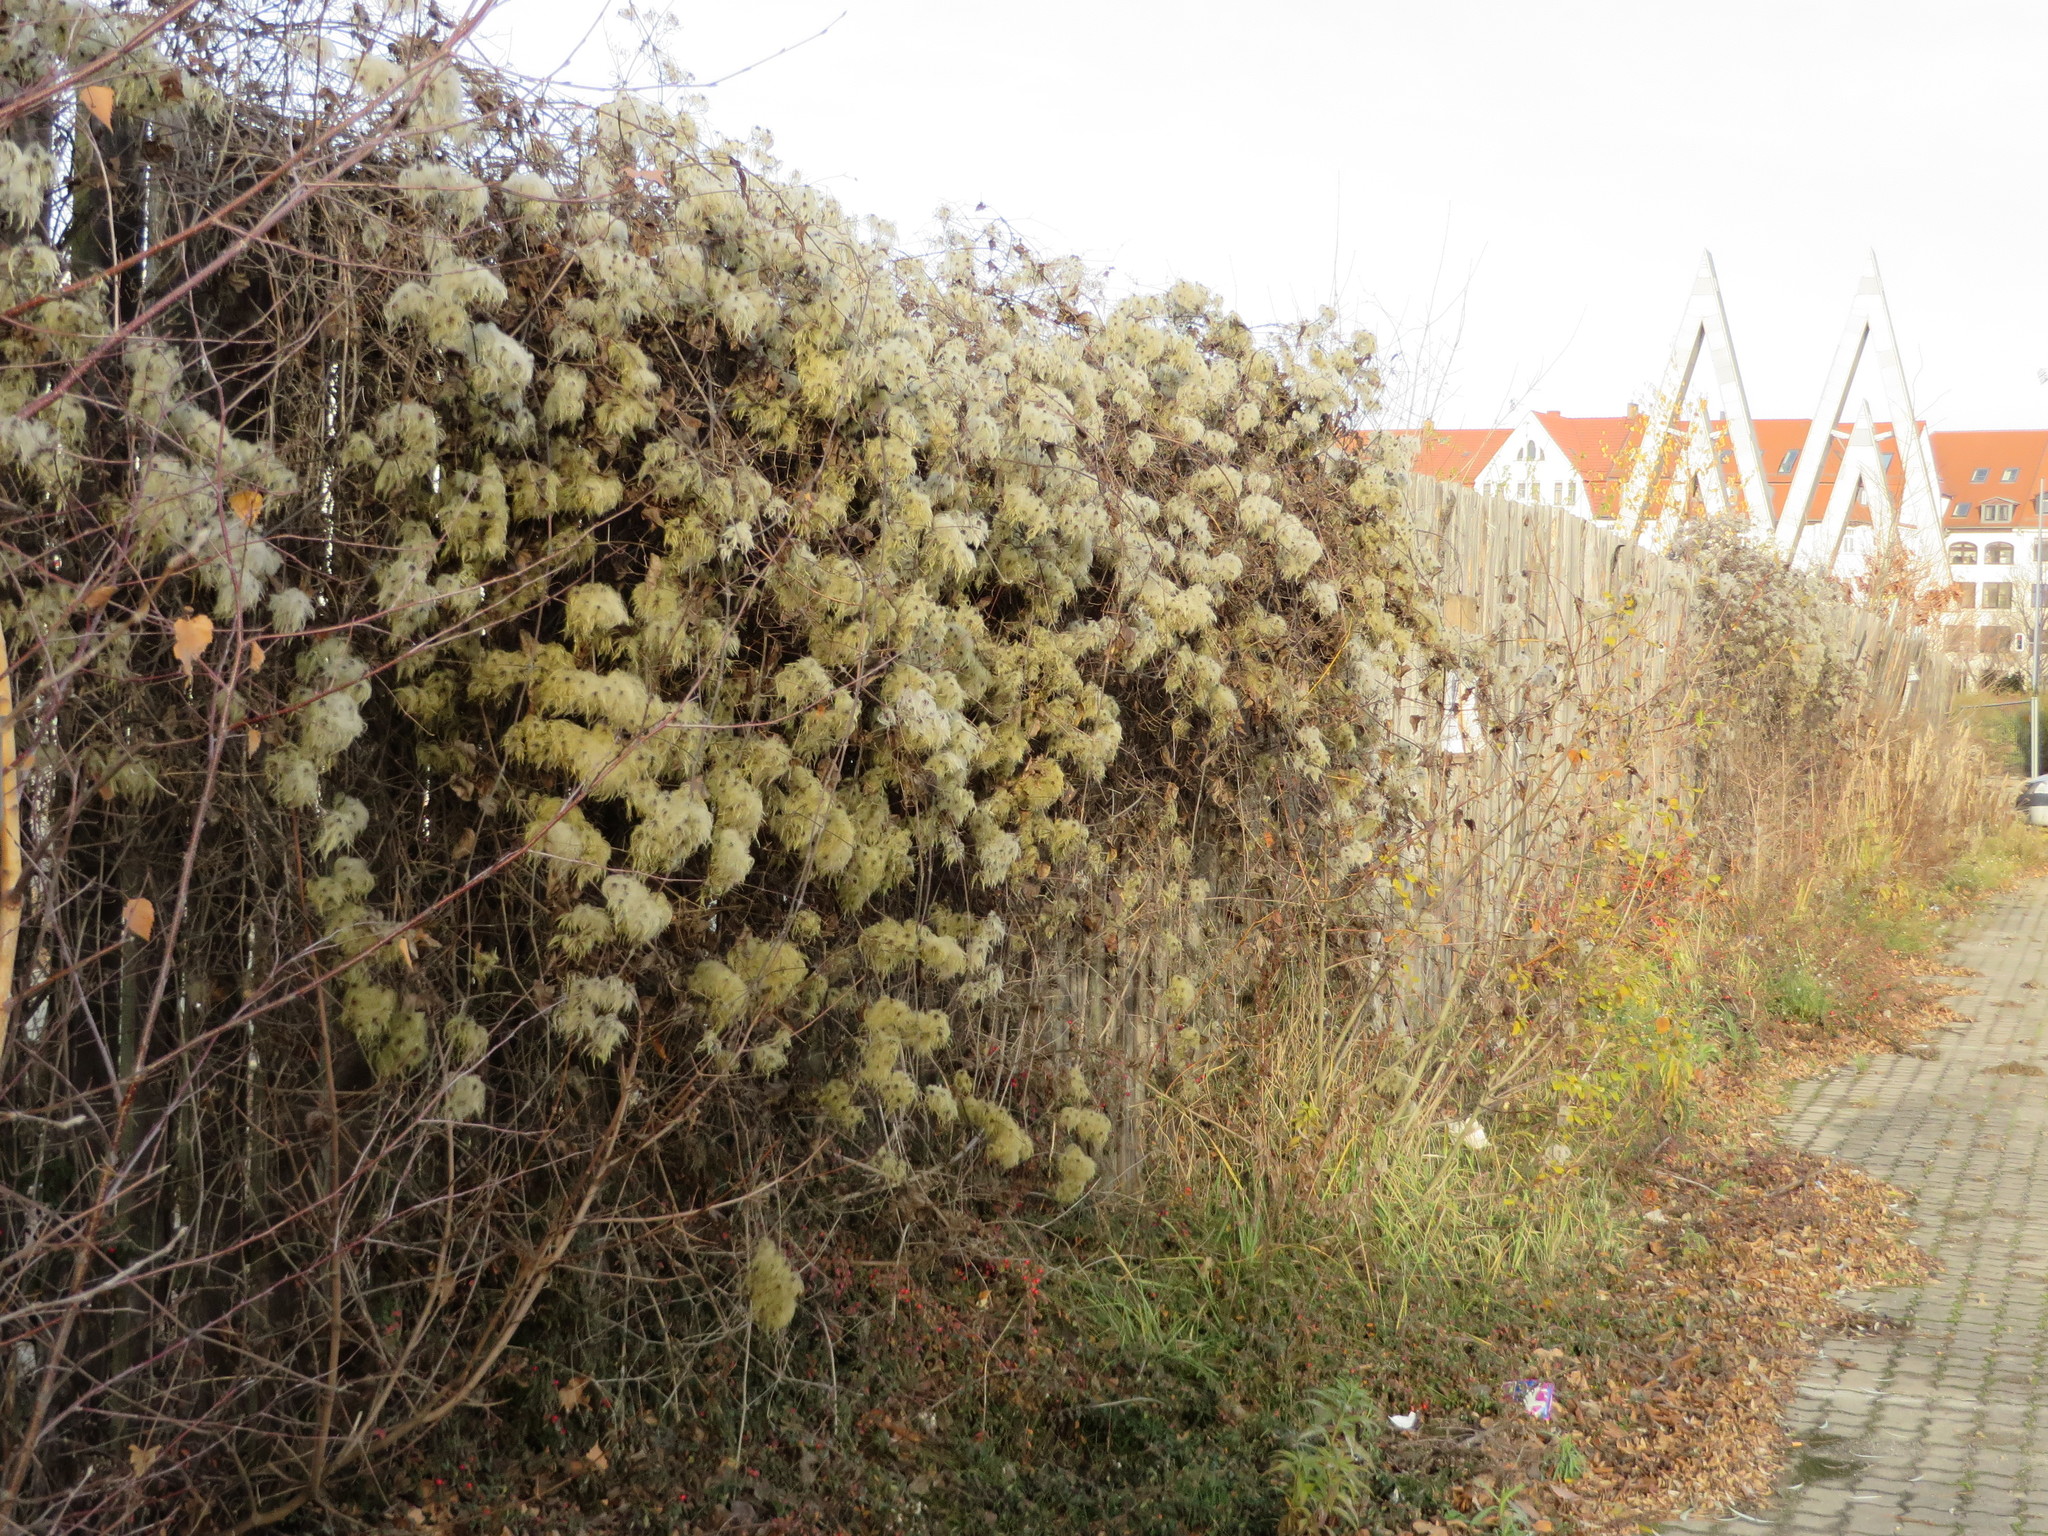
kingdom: Plantae
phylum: Tracheophyta
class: Magnoliopsida
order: Ranunculales
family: Ranunculaceae
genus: Clematis
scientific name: Clematis vitalba
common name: Evergreen clematis
